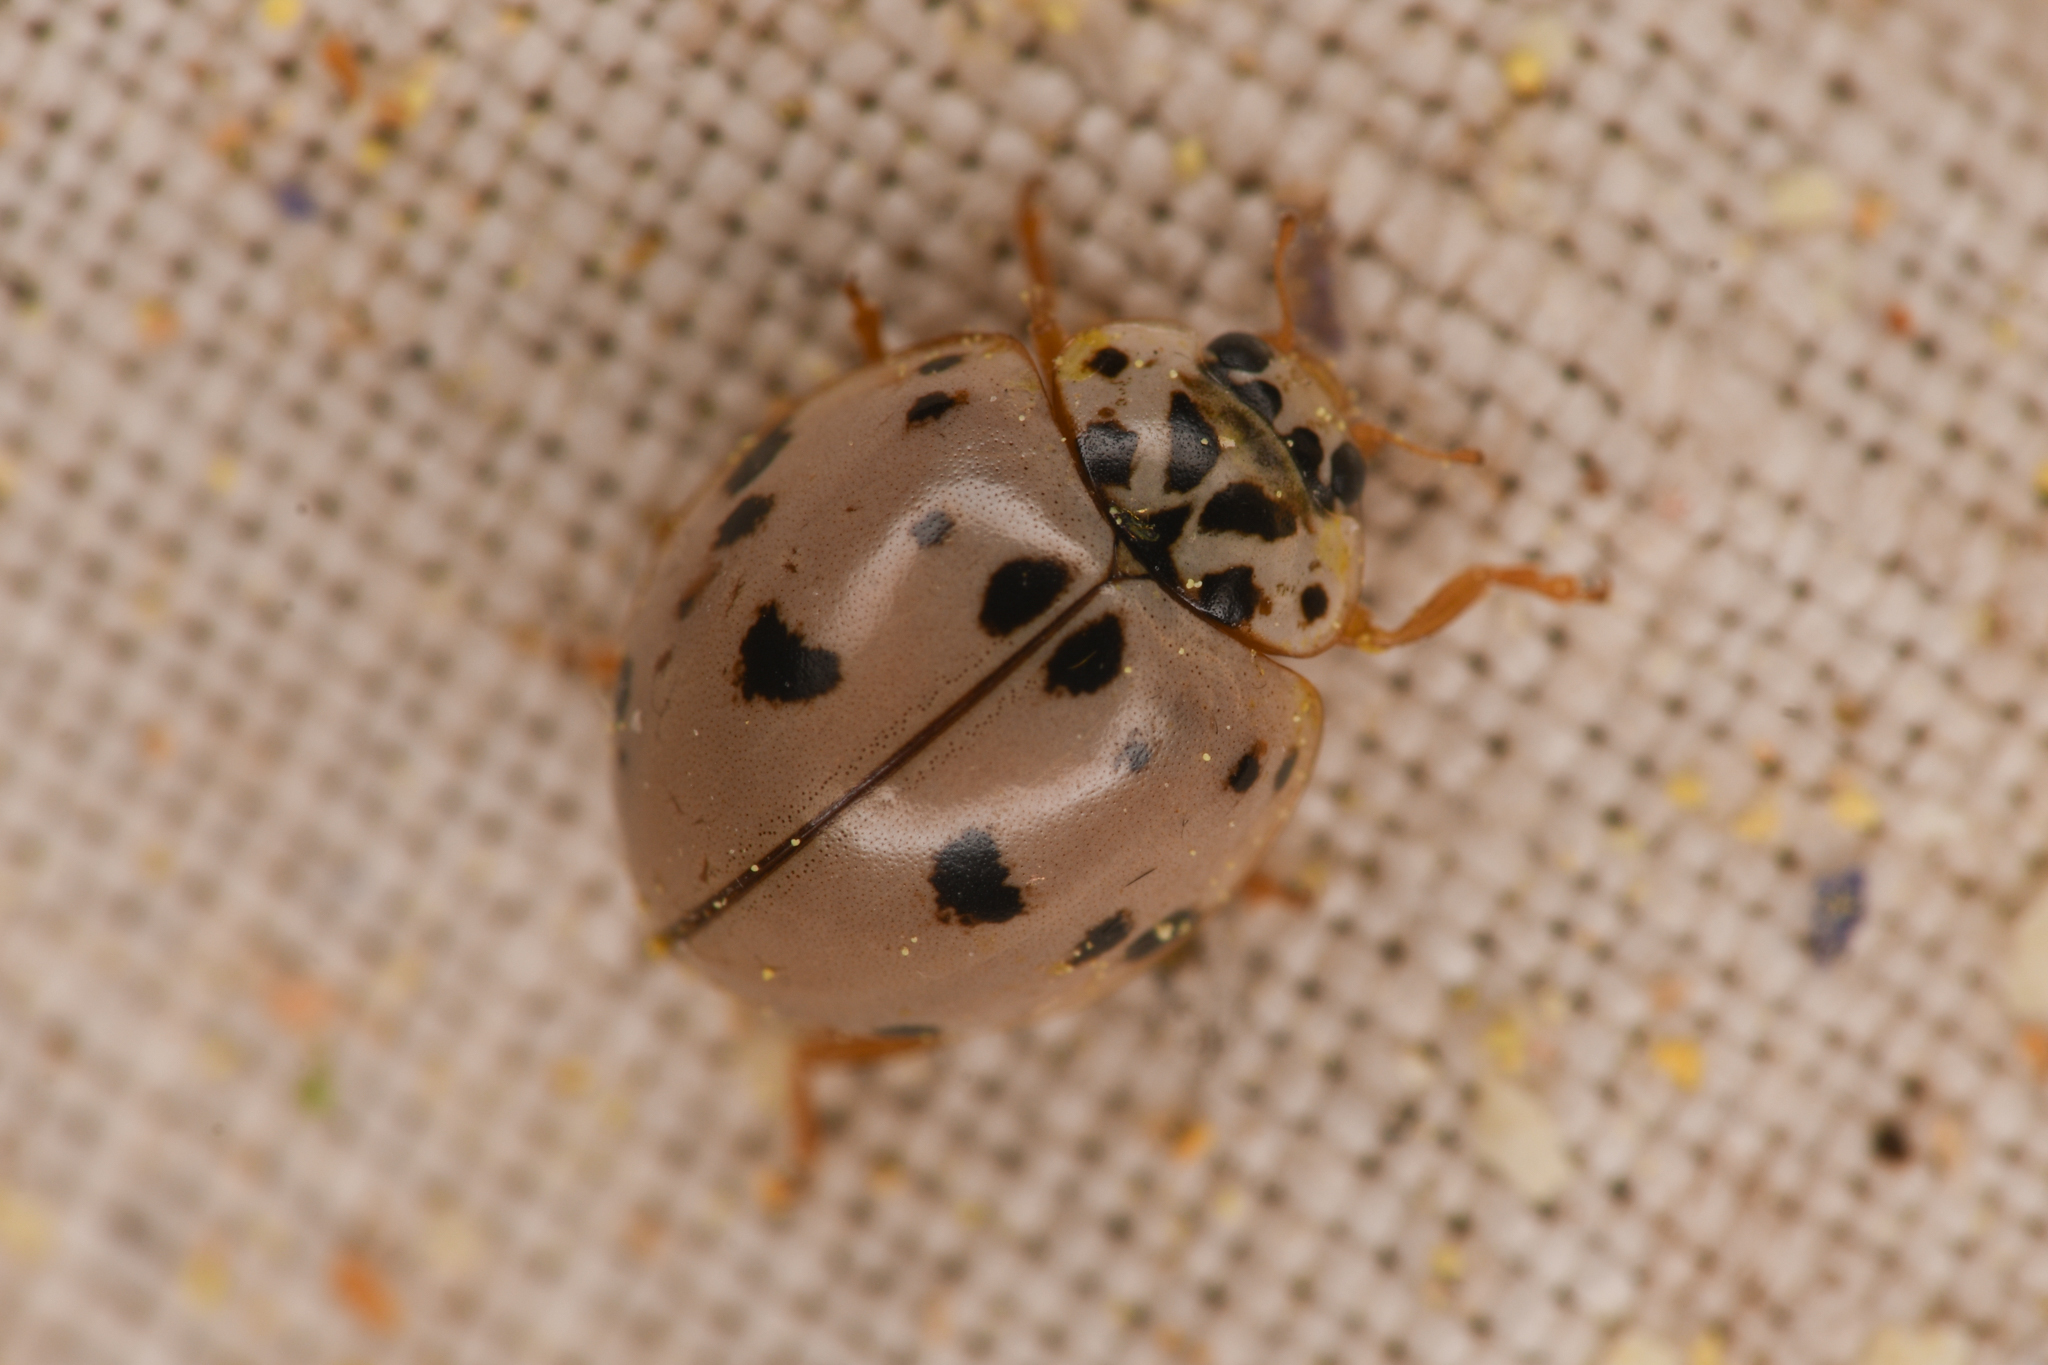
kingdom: Animalia
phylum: Arthropoda
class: Insecta
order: Coleoptera
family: Coccinellidae
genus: Olla
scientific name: Olla v-nigrum
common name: Ashy gray lady beetle
